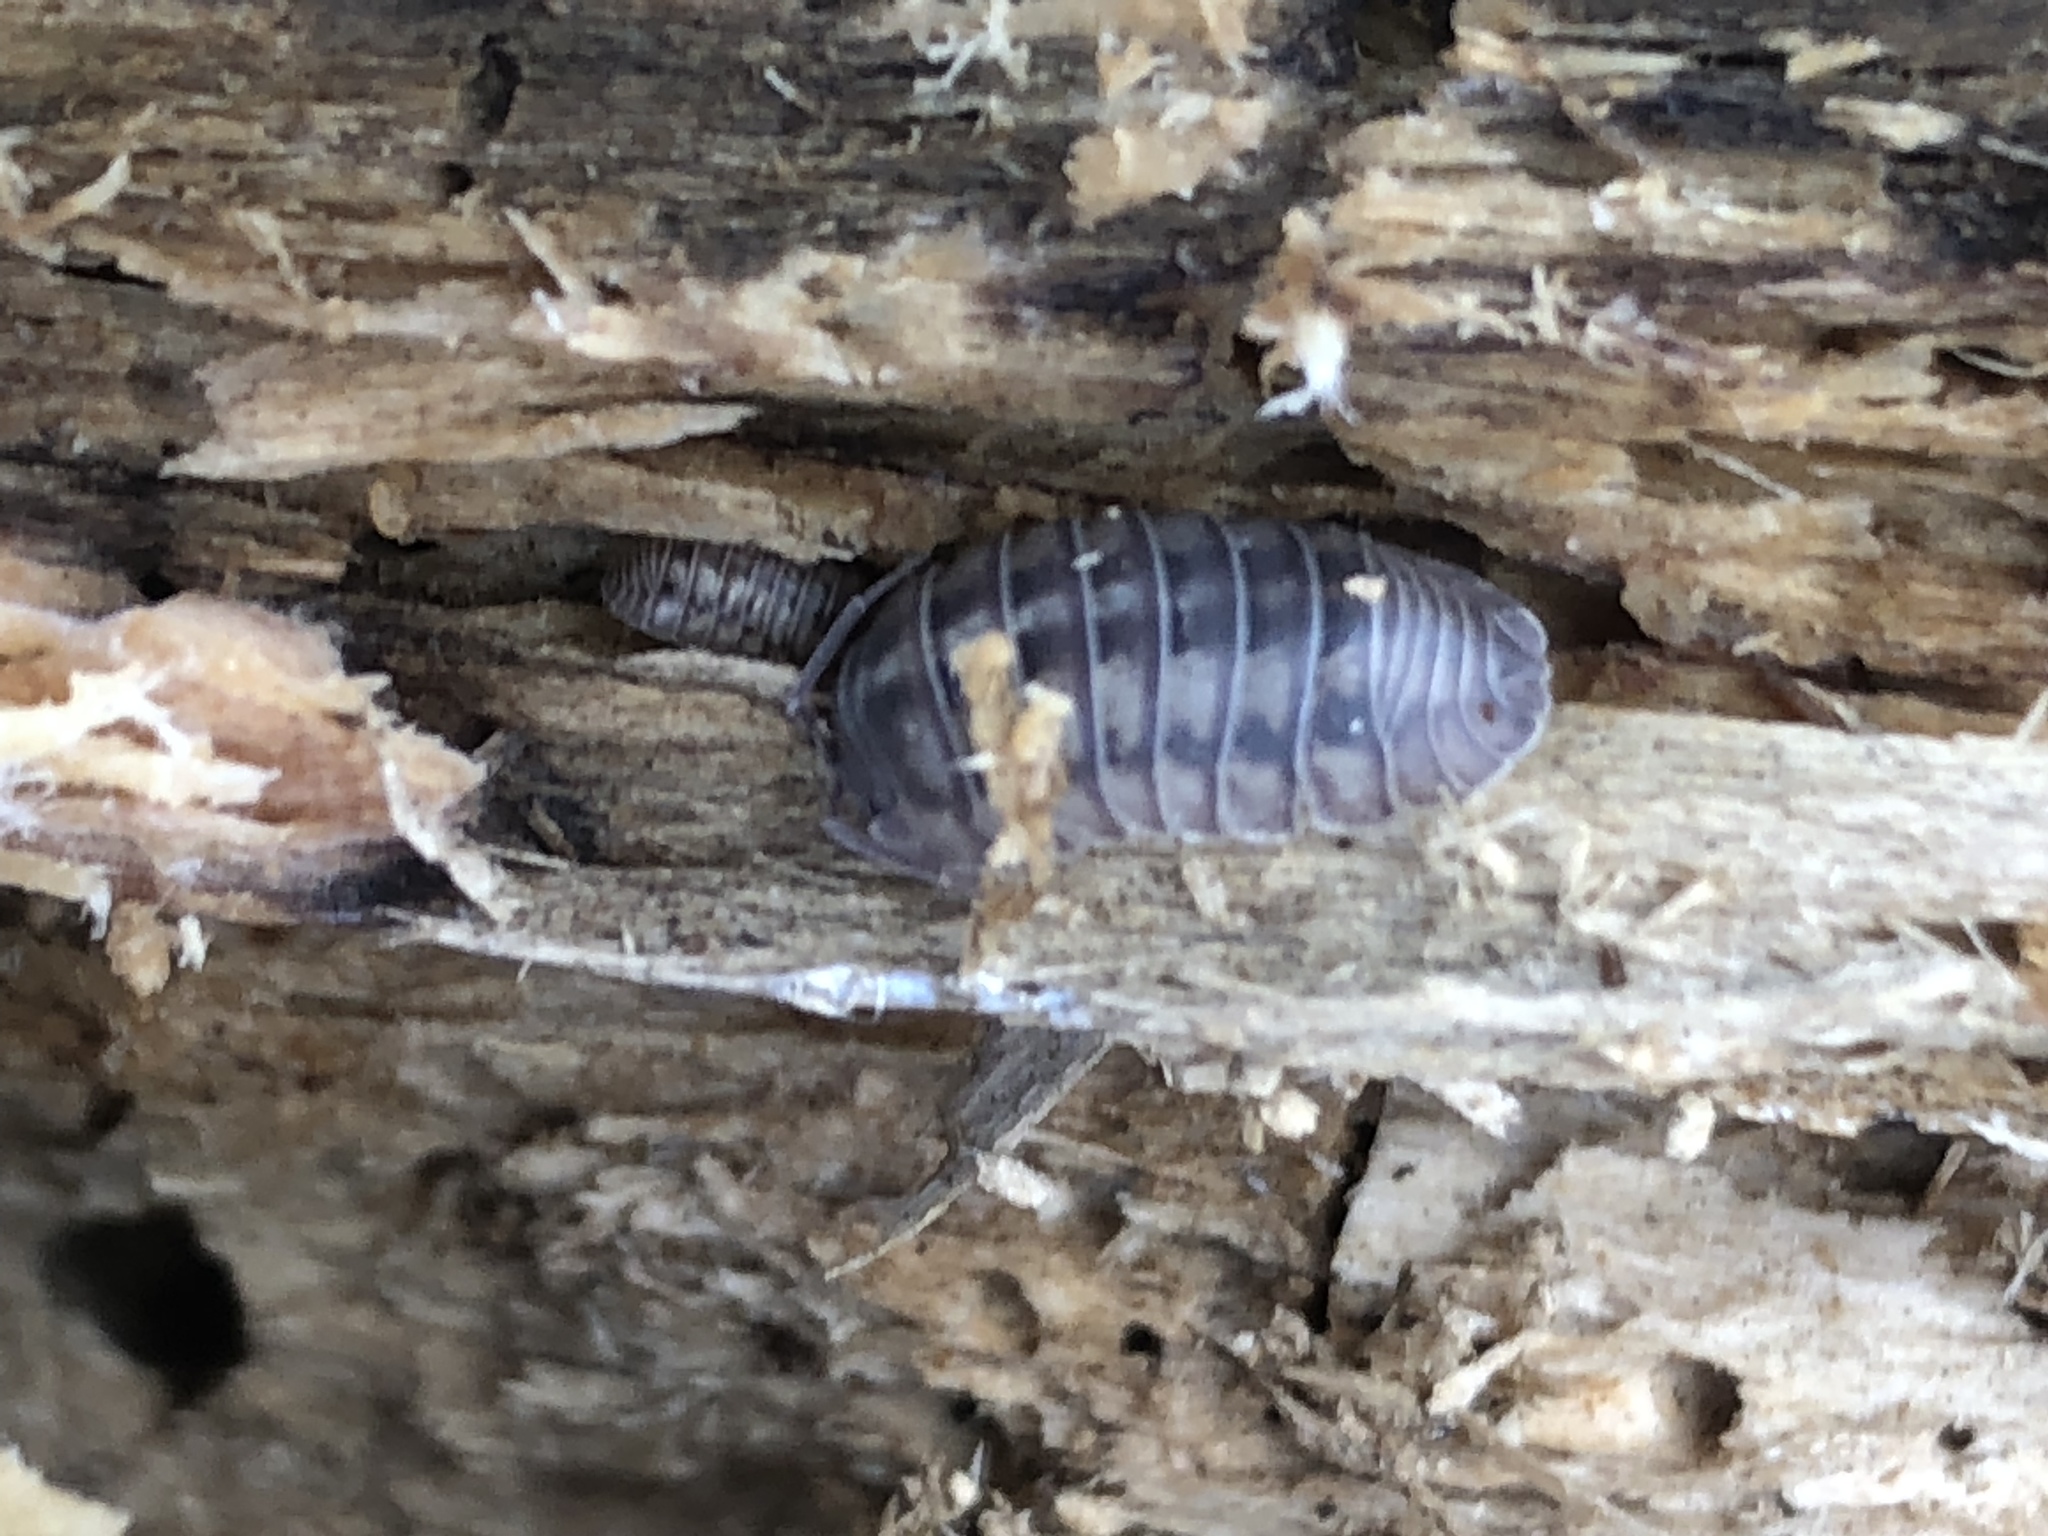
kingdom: Animalia
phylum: Arthropoda
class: Malacostraca
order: Isopoda
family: Armadillidiidae
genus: Armadillidium
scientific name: Armadillidium nasatum
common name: Isopod
